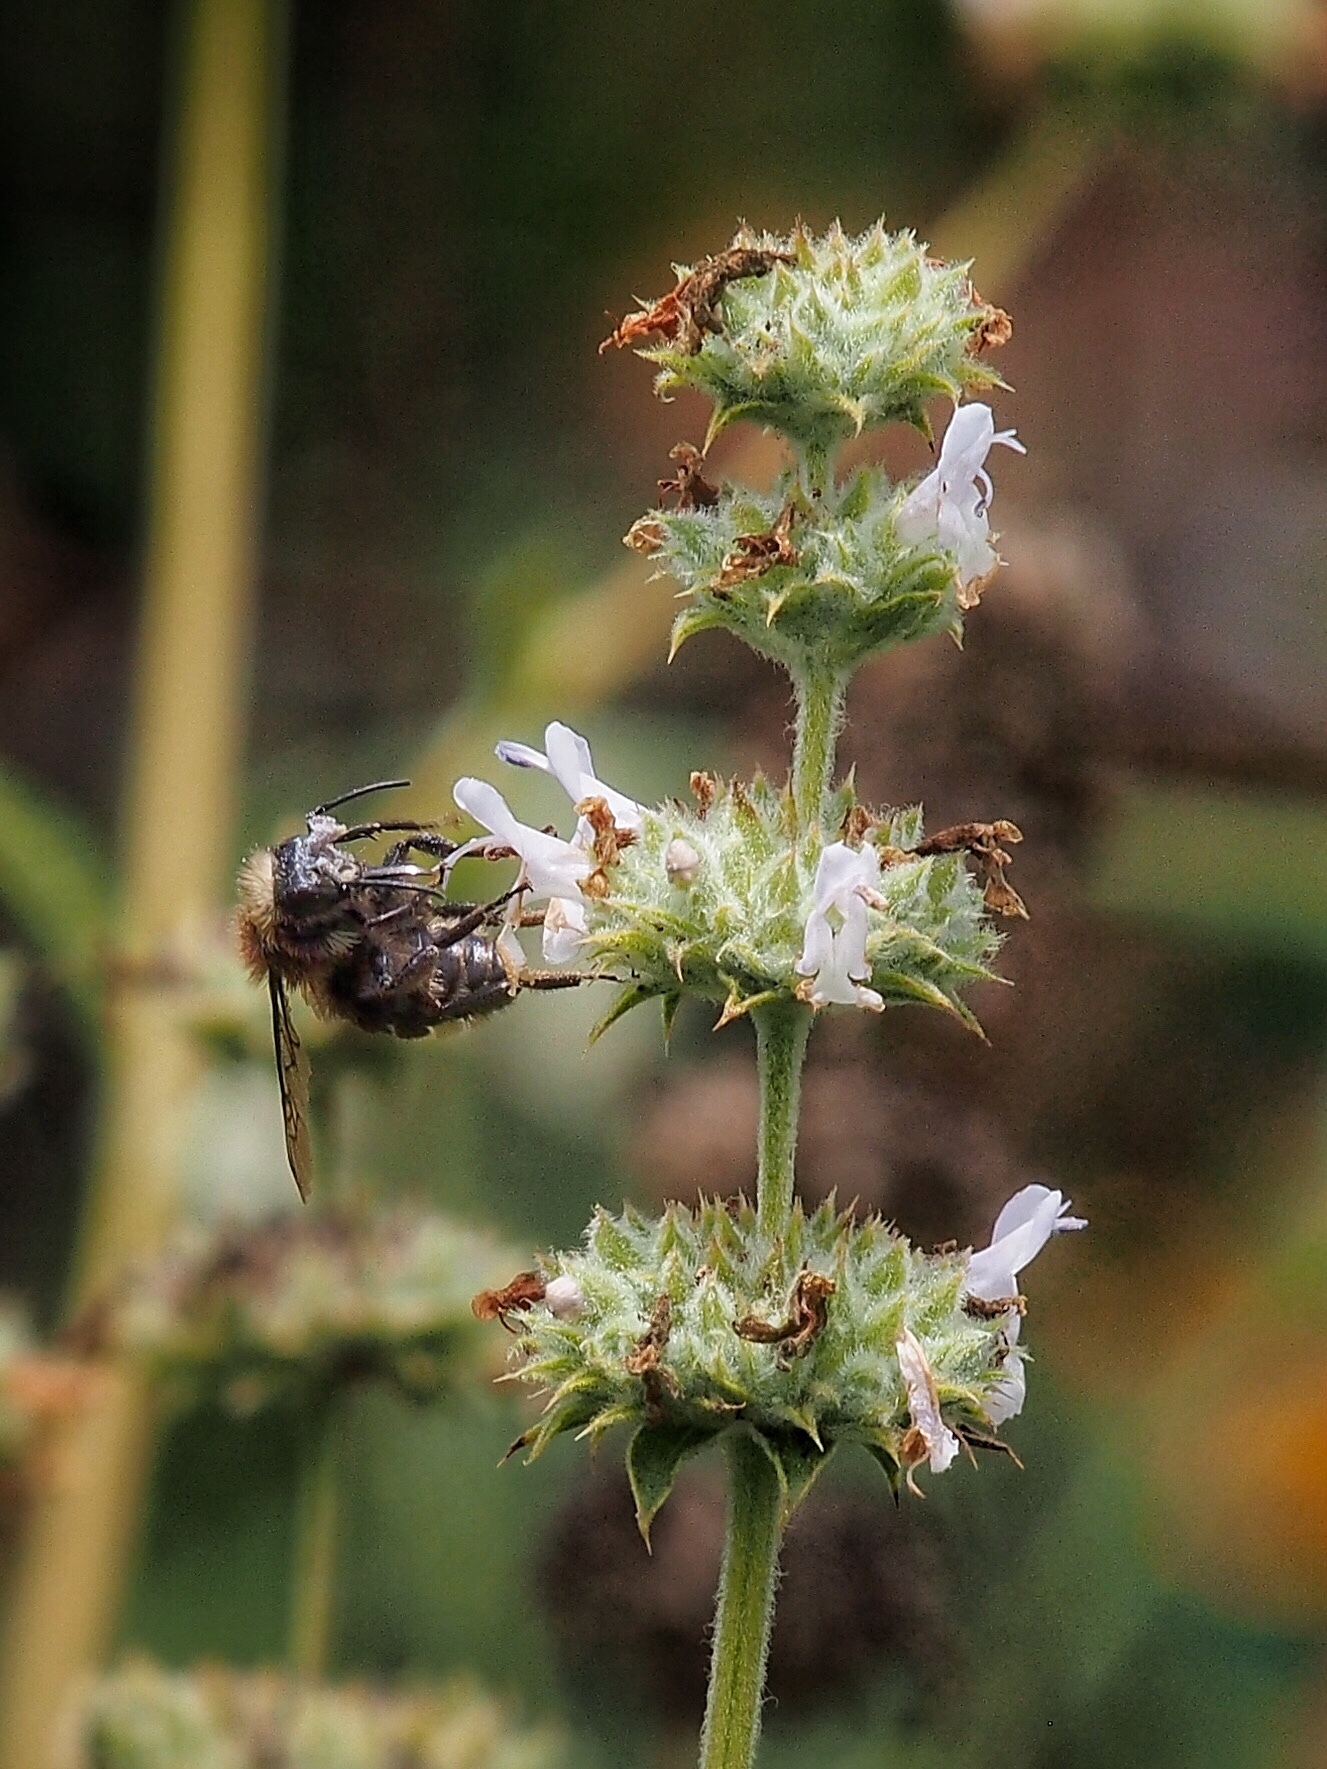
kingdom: Animalia
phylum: Arthropoda
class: Insecta
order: Hymenoptera
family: Apidae
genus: Bombus
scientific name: Bombus vosnesenskii
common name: Vosnesensky bumble bee
